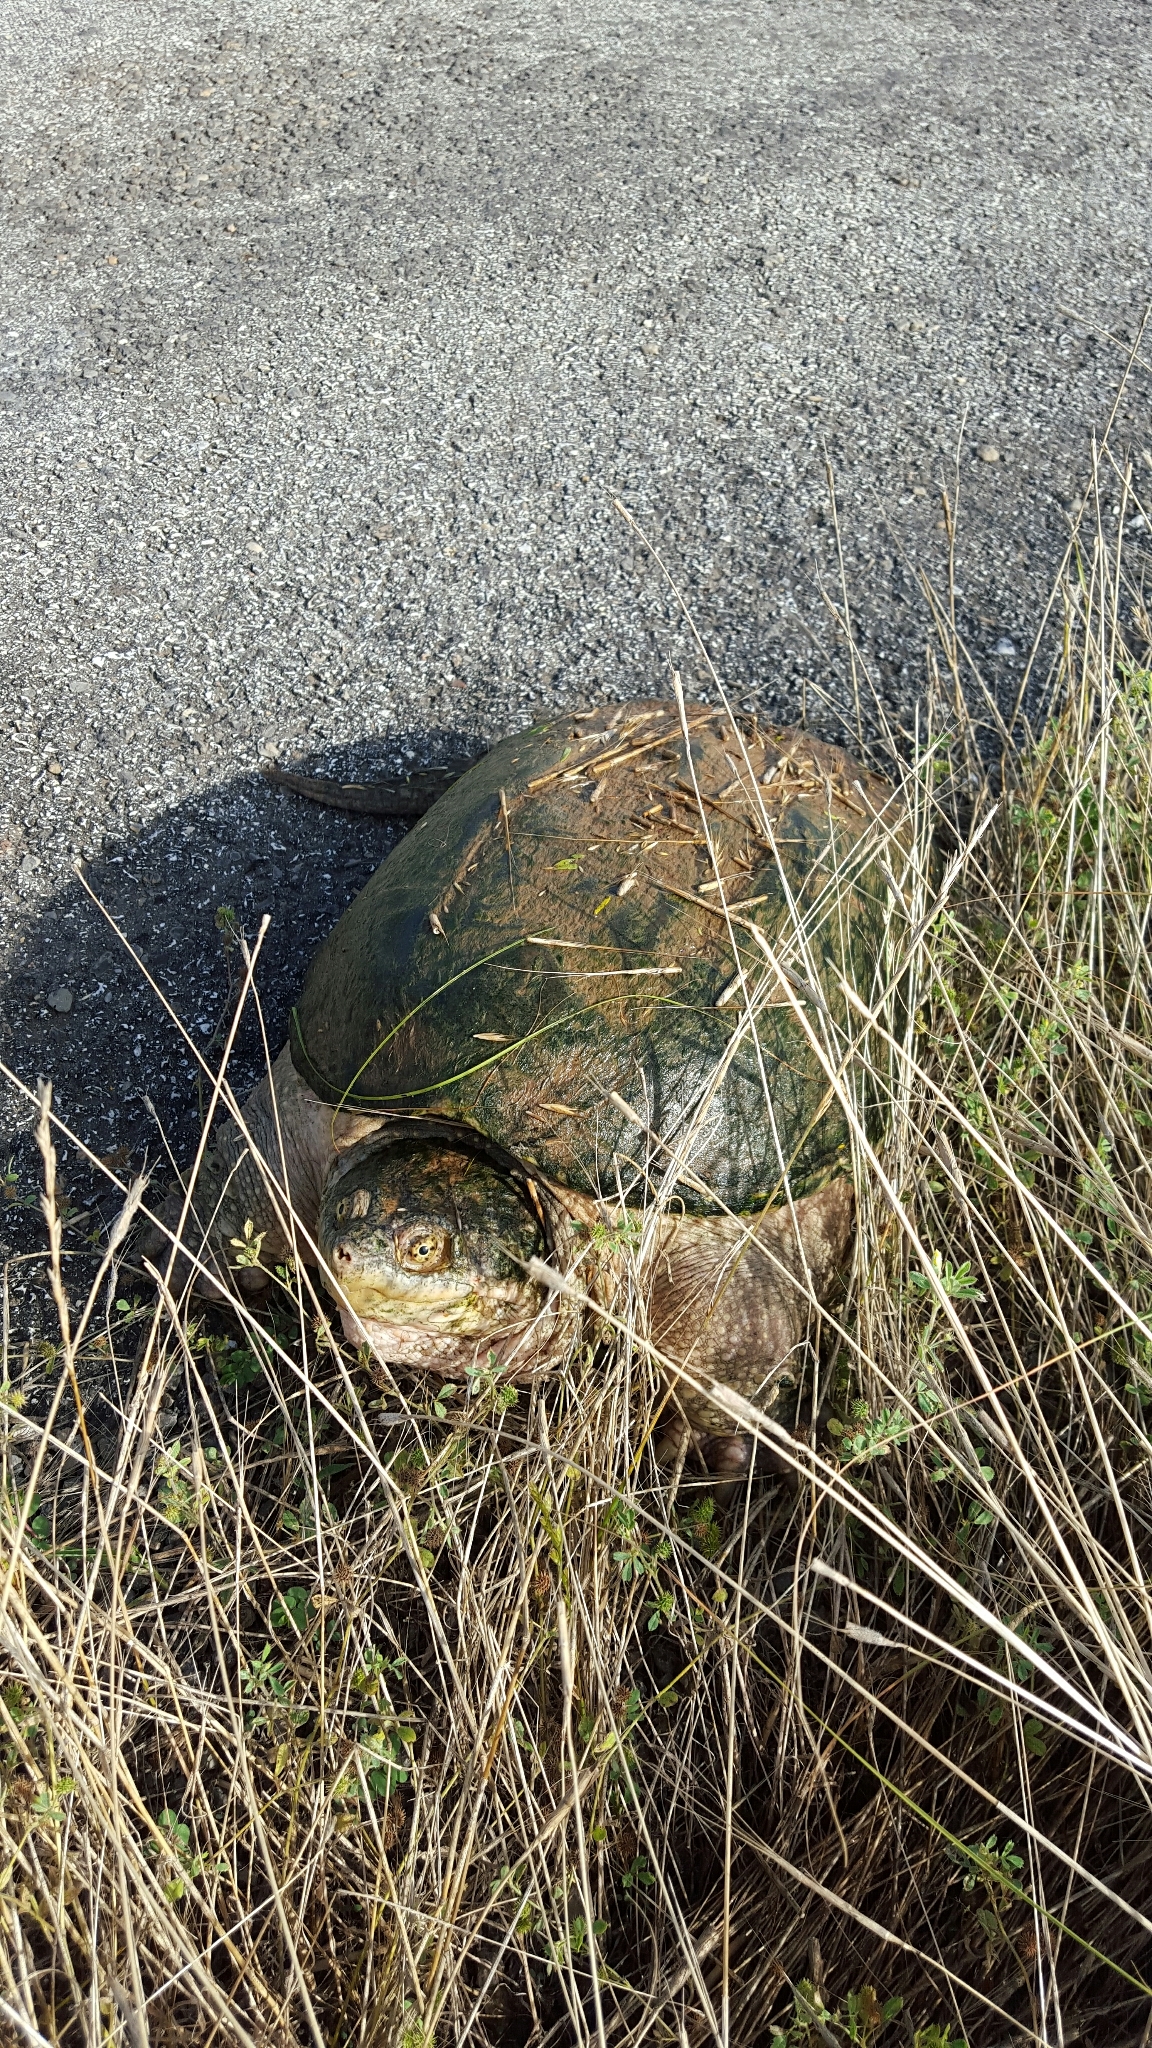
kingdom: Animalia
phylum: Chordata
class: Testudines
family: Chelydridae
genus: Chelydra
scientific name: Chelydra serpentina
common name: Common snapping turtle
